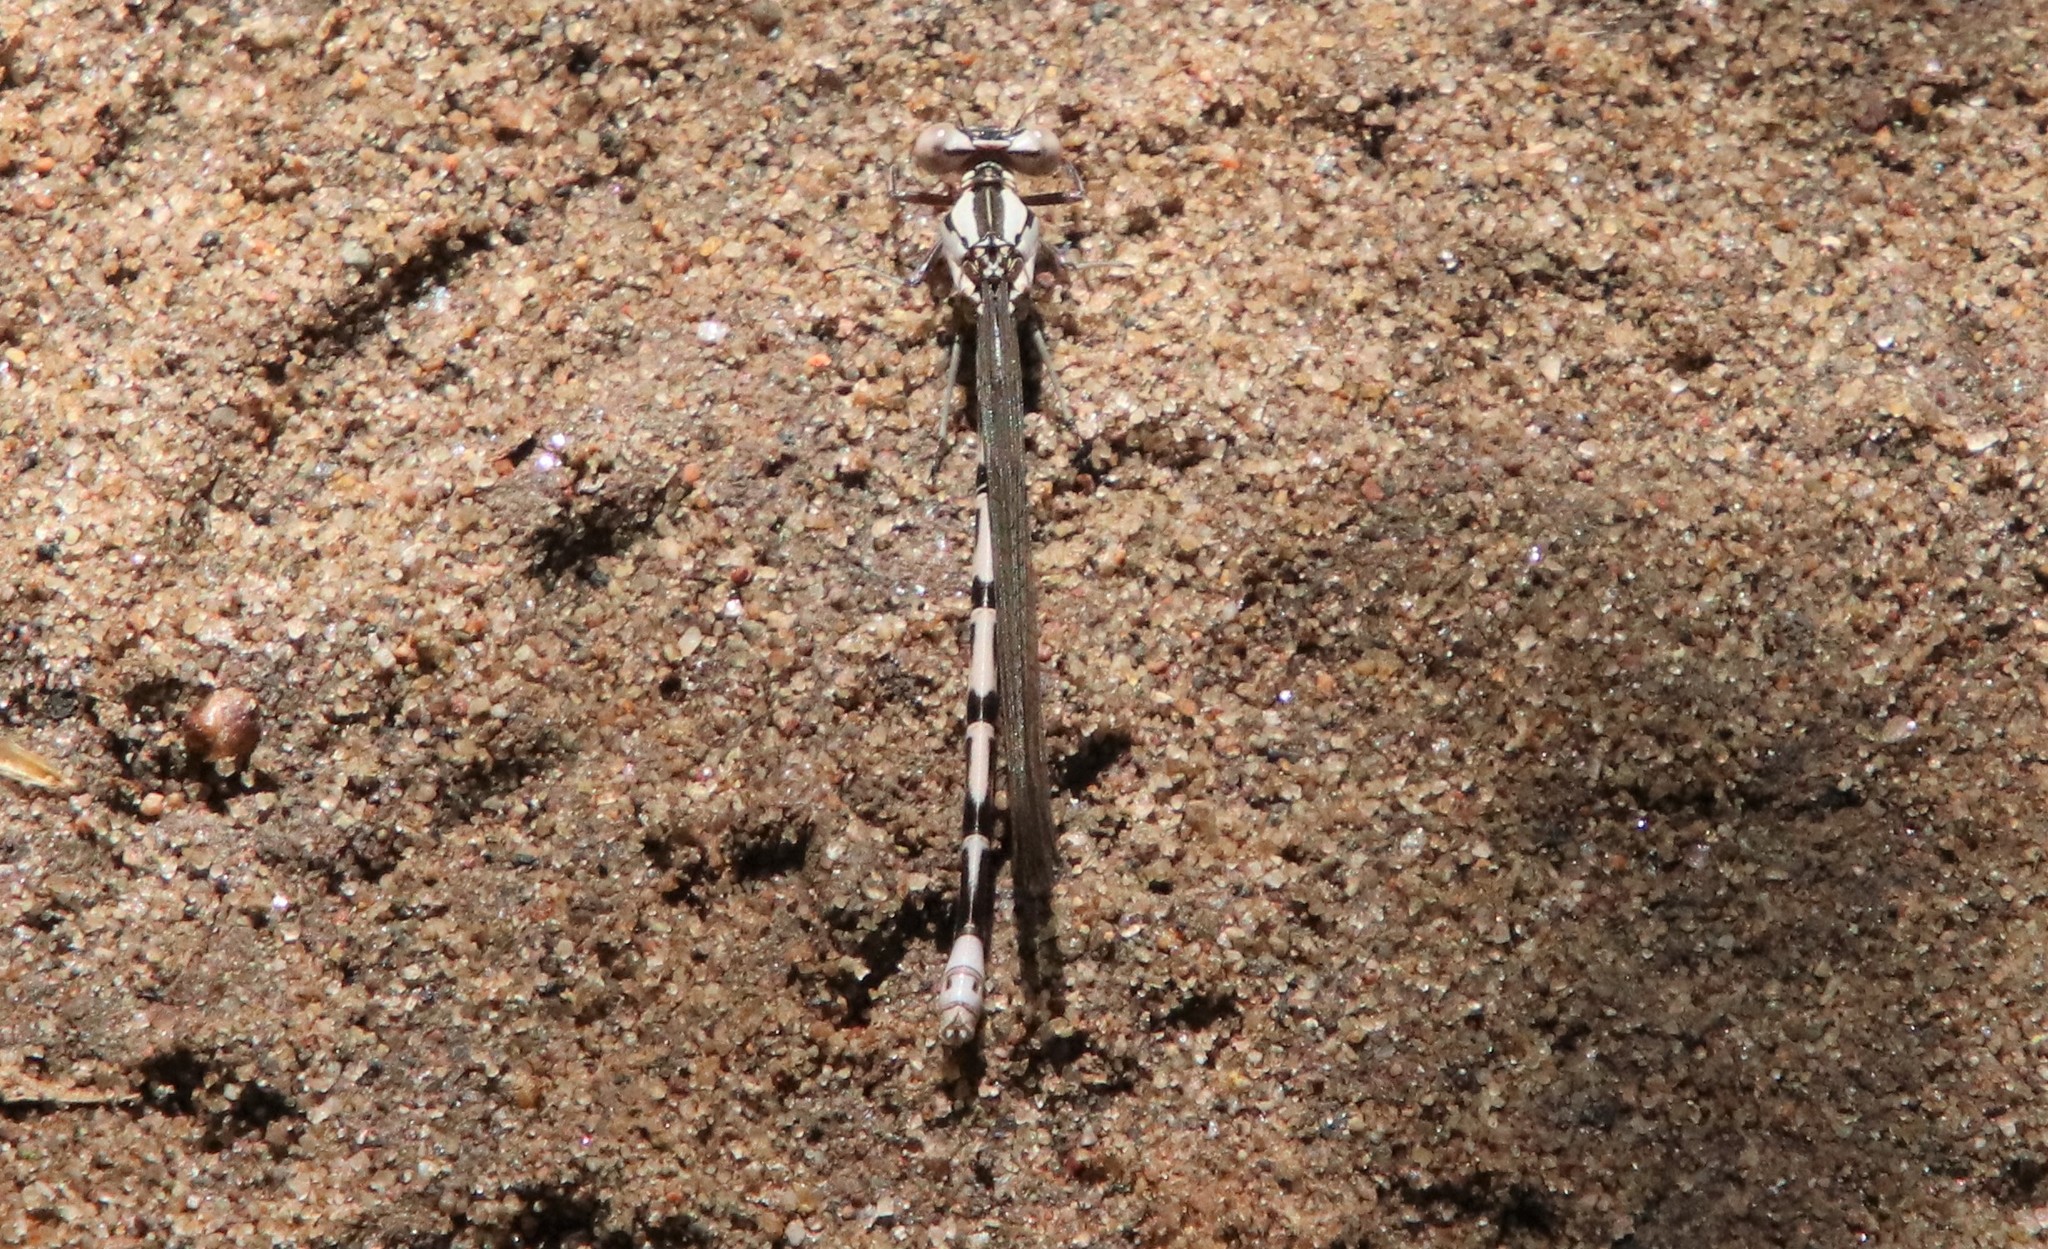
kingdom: Animalia
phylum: Arthropoda
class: Insecta
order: Odonata
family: Coenagrionidae
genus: Argia
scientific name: Argia vivida
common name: Vivid dancer
